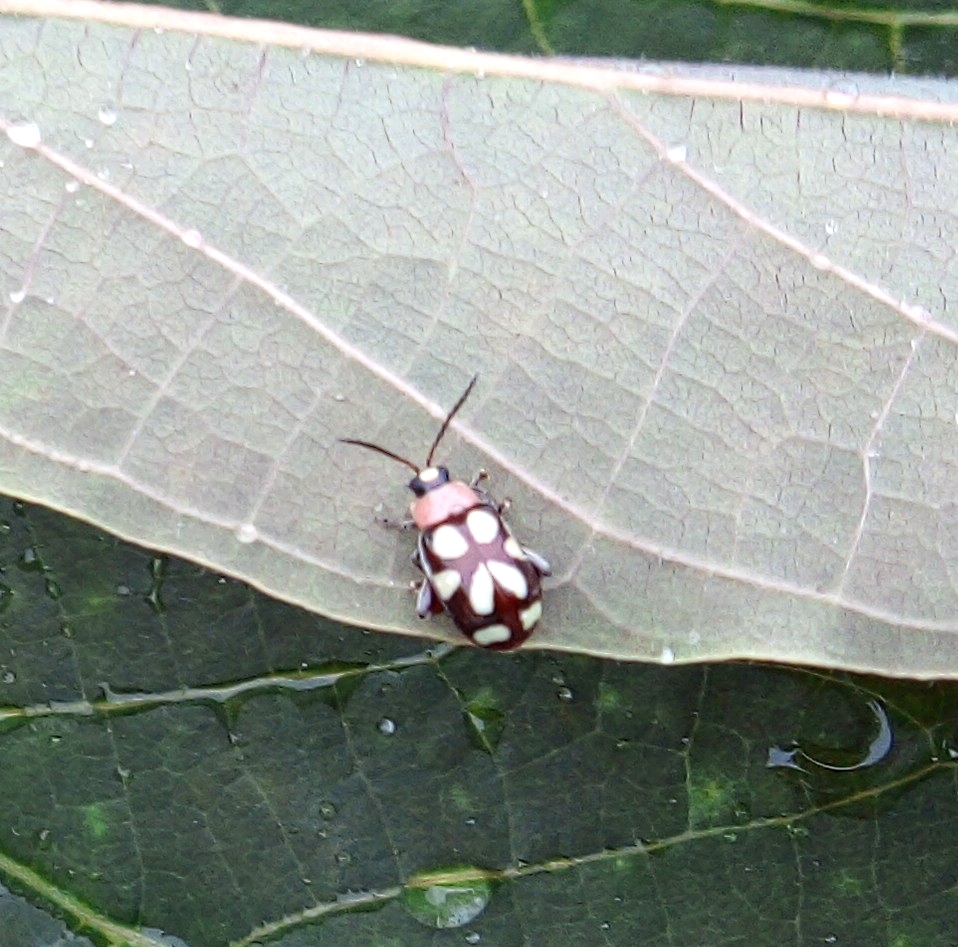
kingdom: Animalia
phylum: Arthropoda
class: Insecta
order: Coleoptera
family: Chrysomelidae
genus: Omophoita
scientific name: Omophoita aequinoctialis
